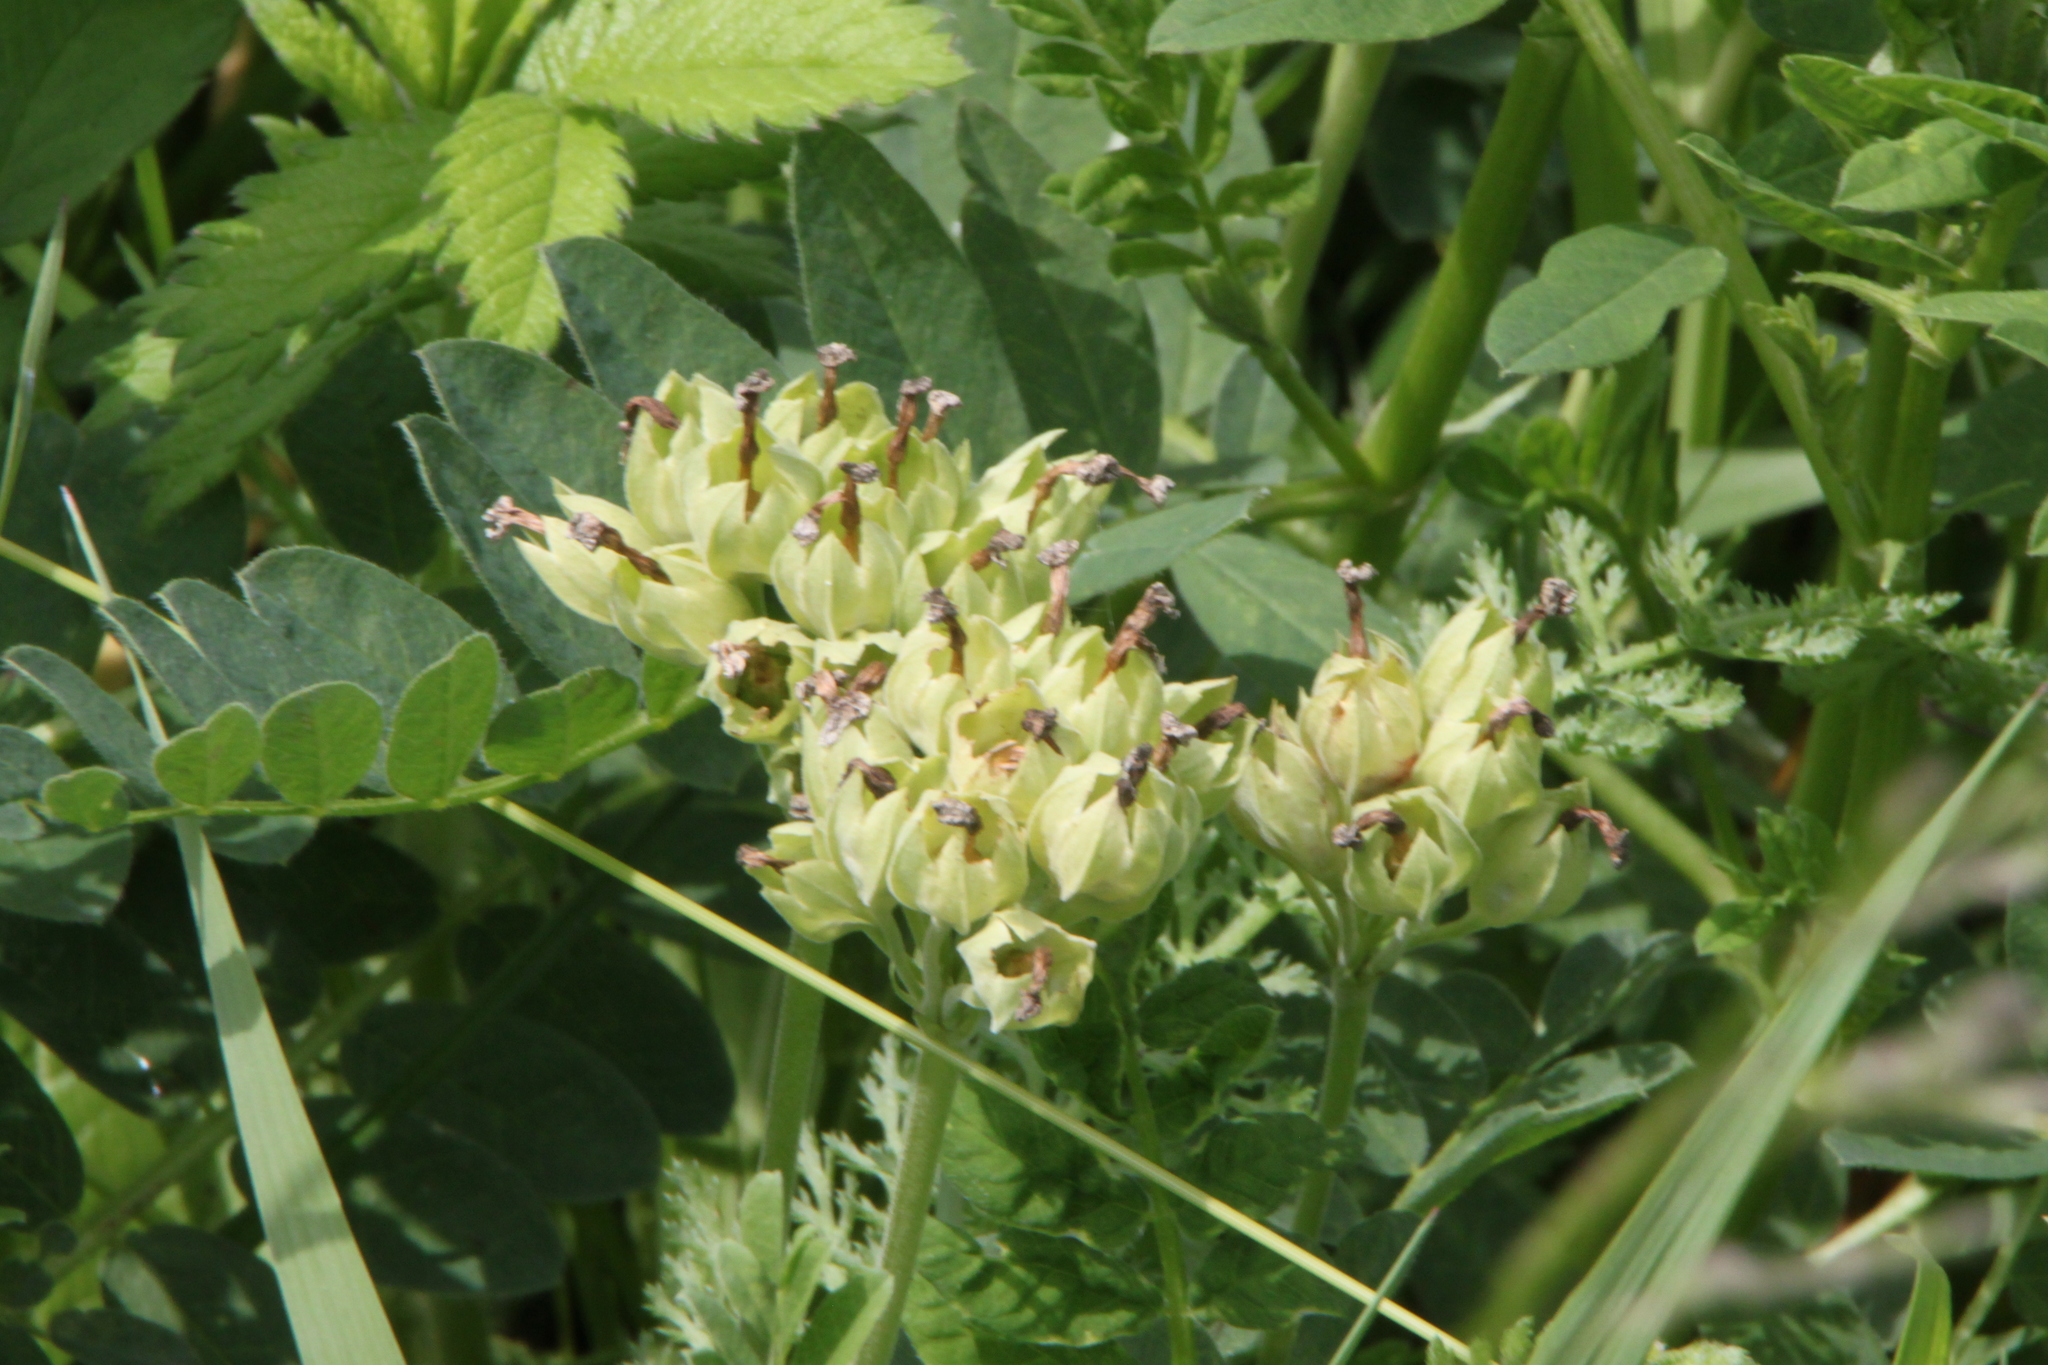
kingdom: Plantae
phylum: Tracheophyta
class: Magnoliopsida
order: Ericales
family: Primulaceae
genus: Primula
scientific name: Primula veris
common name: Cowslip
